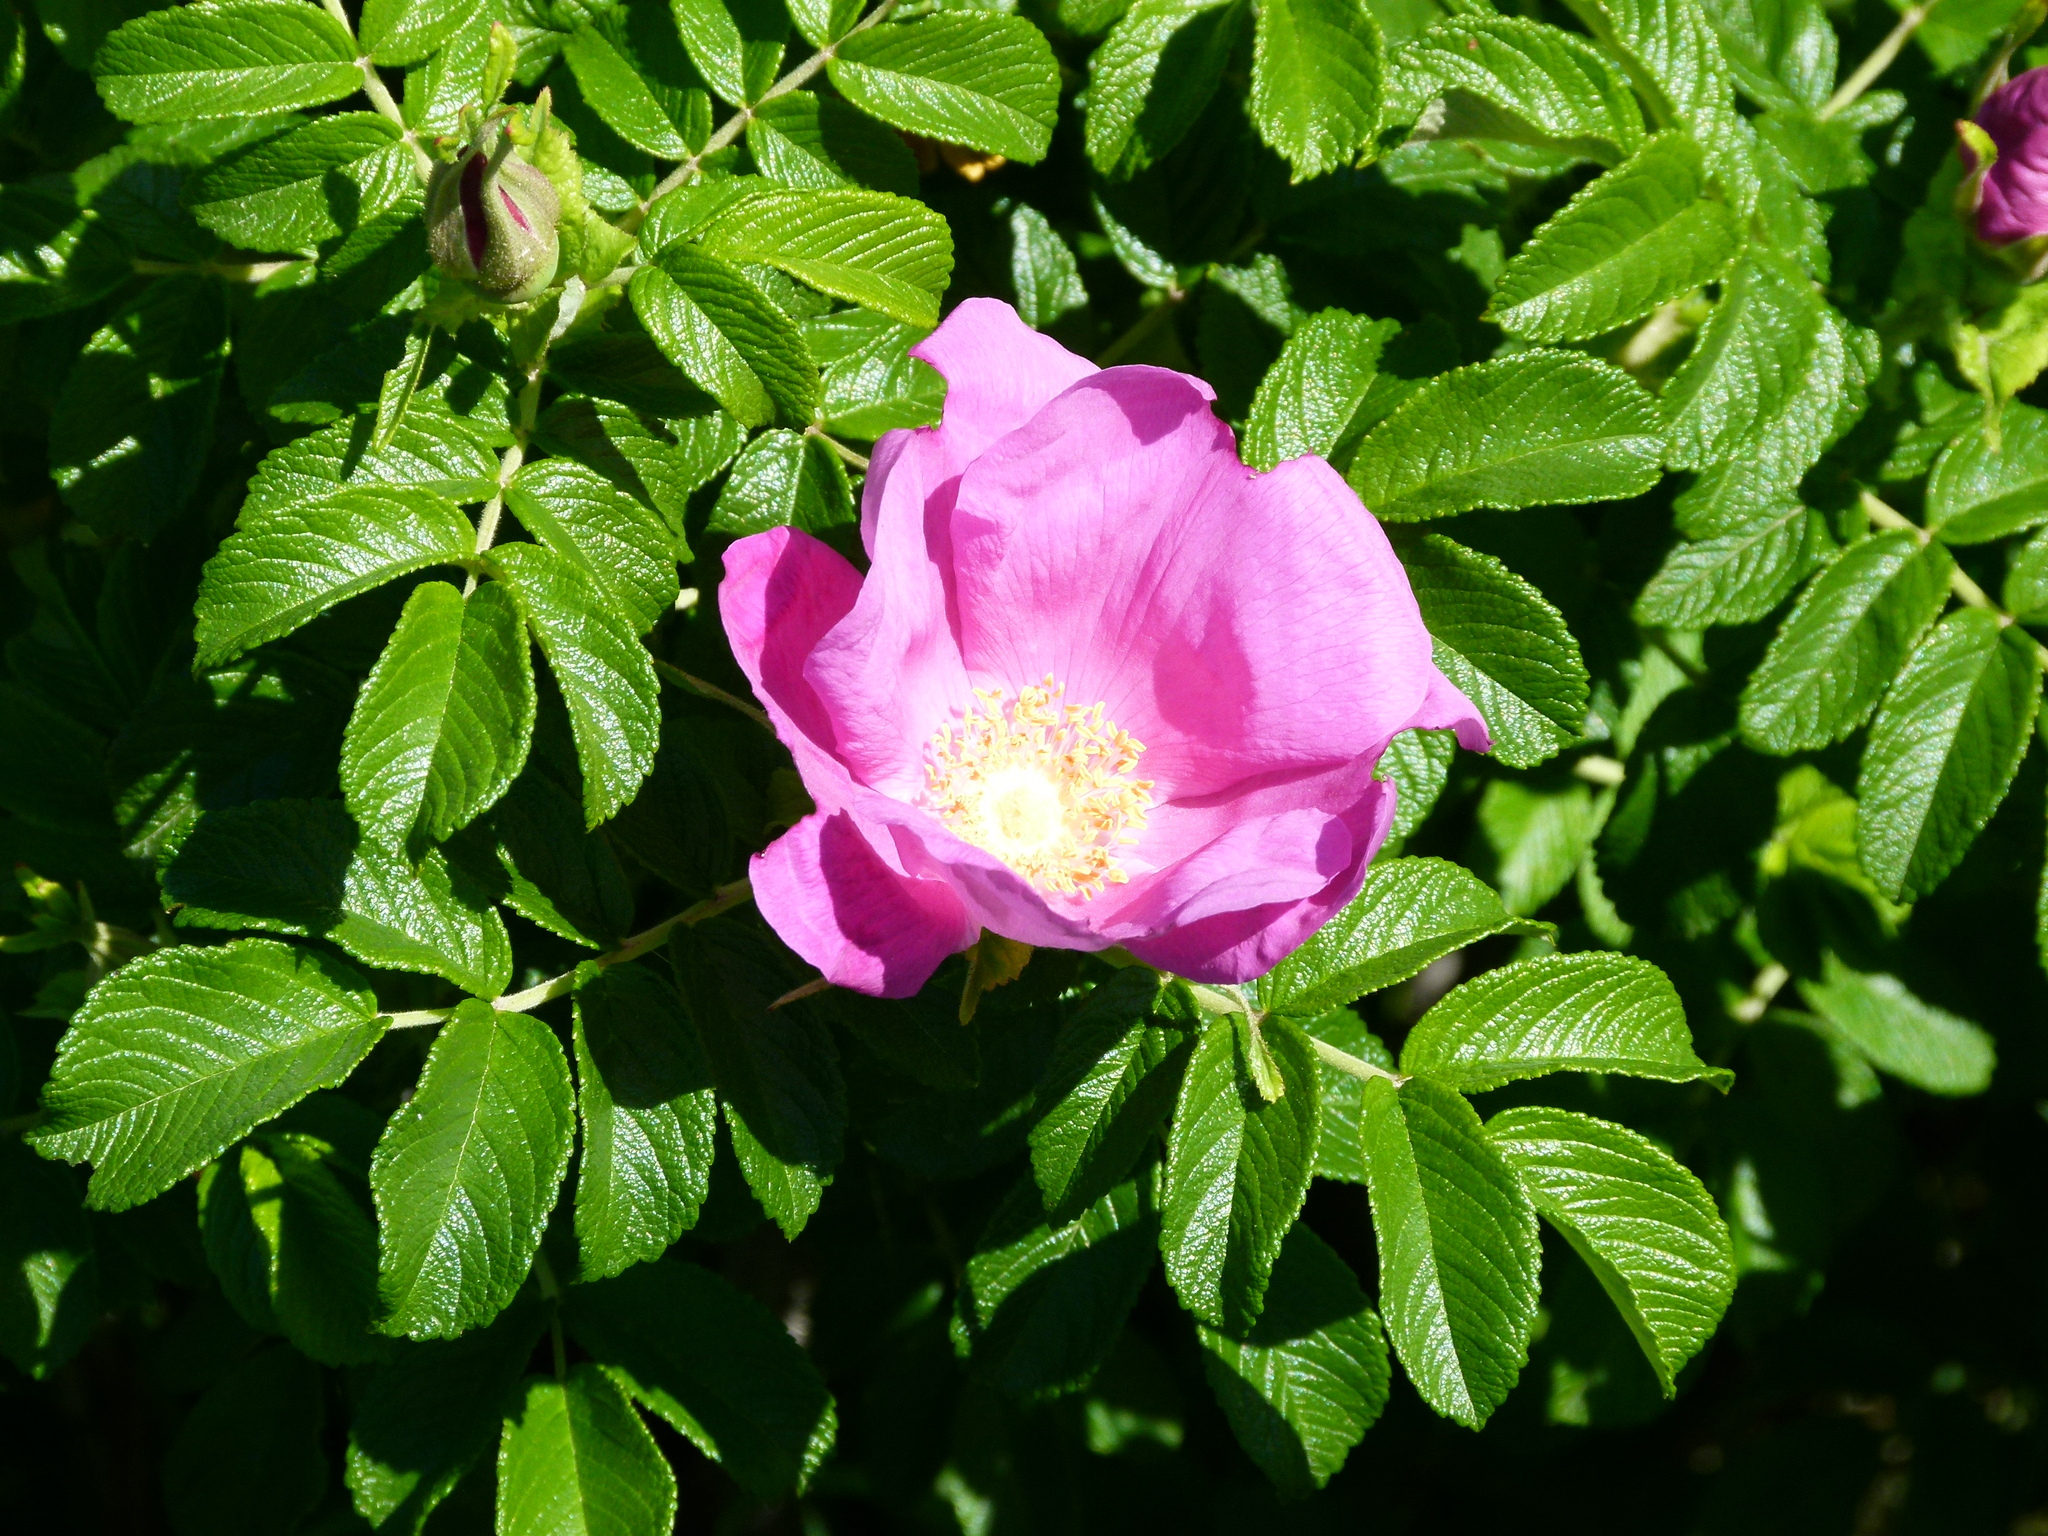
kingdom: Plantae
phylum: Tracheophyta
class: Magnoliopsida
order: Rosales
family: Rosaceae
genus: Rosa
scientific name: Rosa rugosa
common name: Japanese rose
